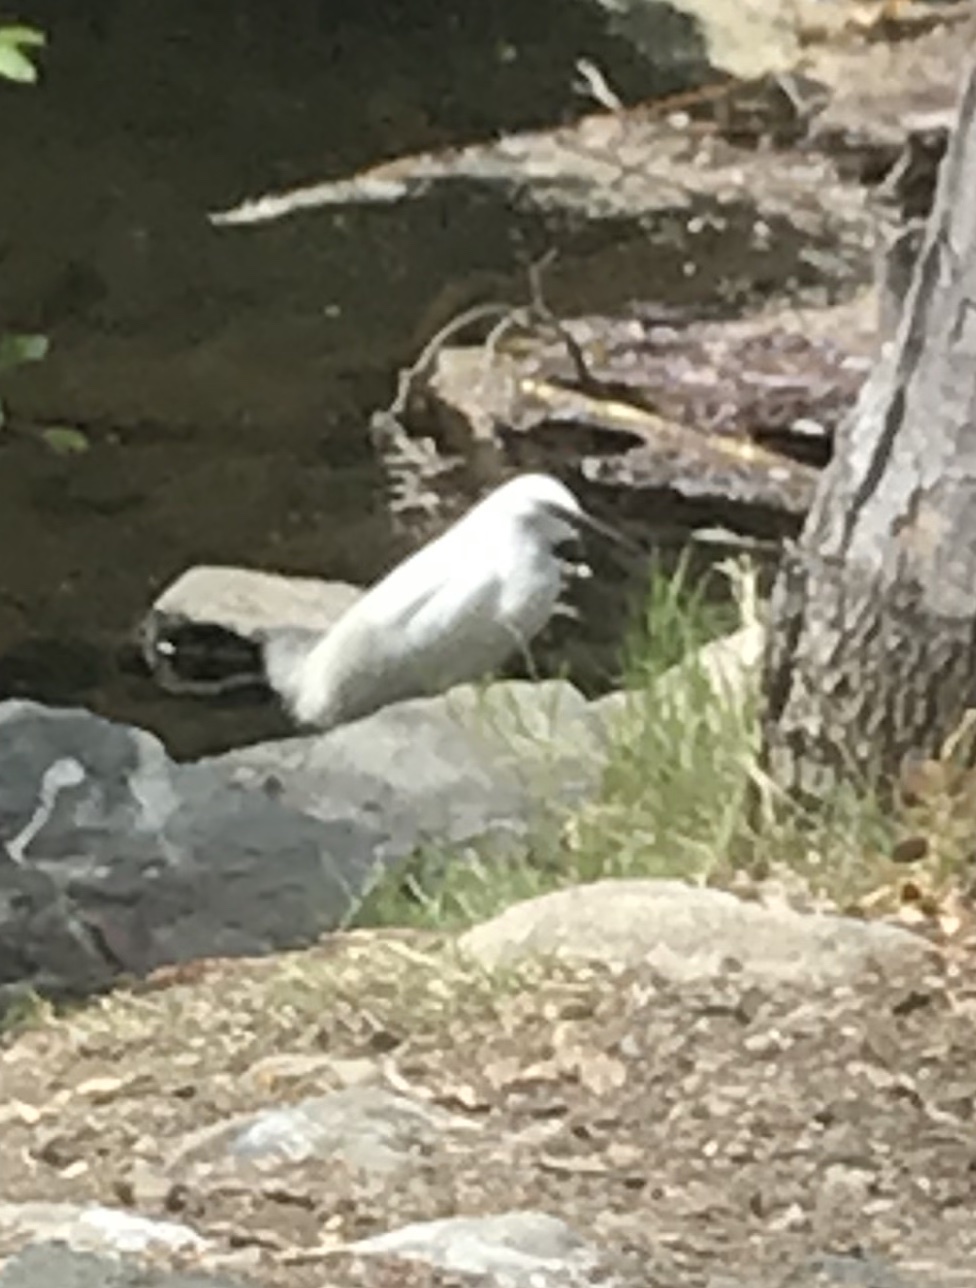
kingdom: Animalia
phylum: Chordata
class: Aves
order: Pelecaniformes
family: Ardeidae
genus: Egretta
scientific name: Egretta thula
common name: Snowy egret
